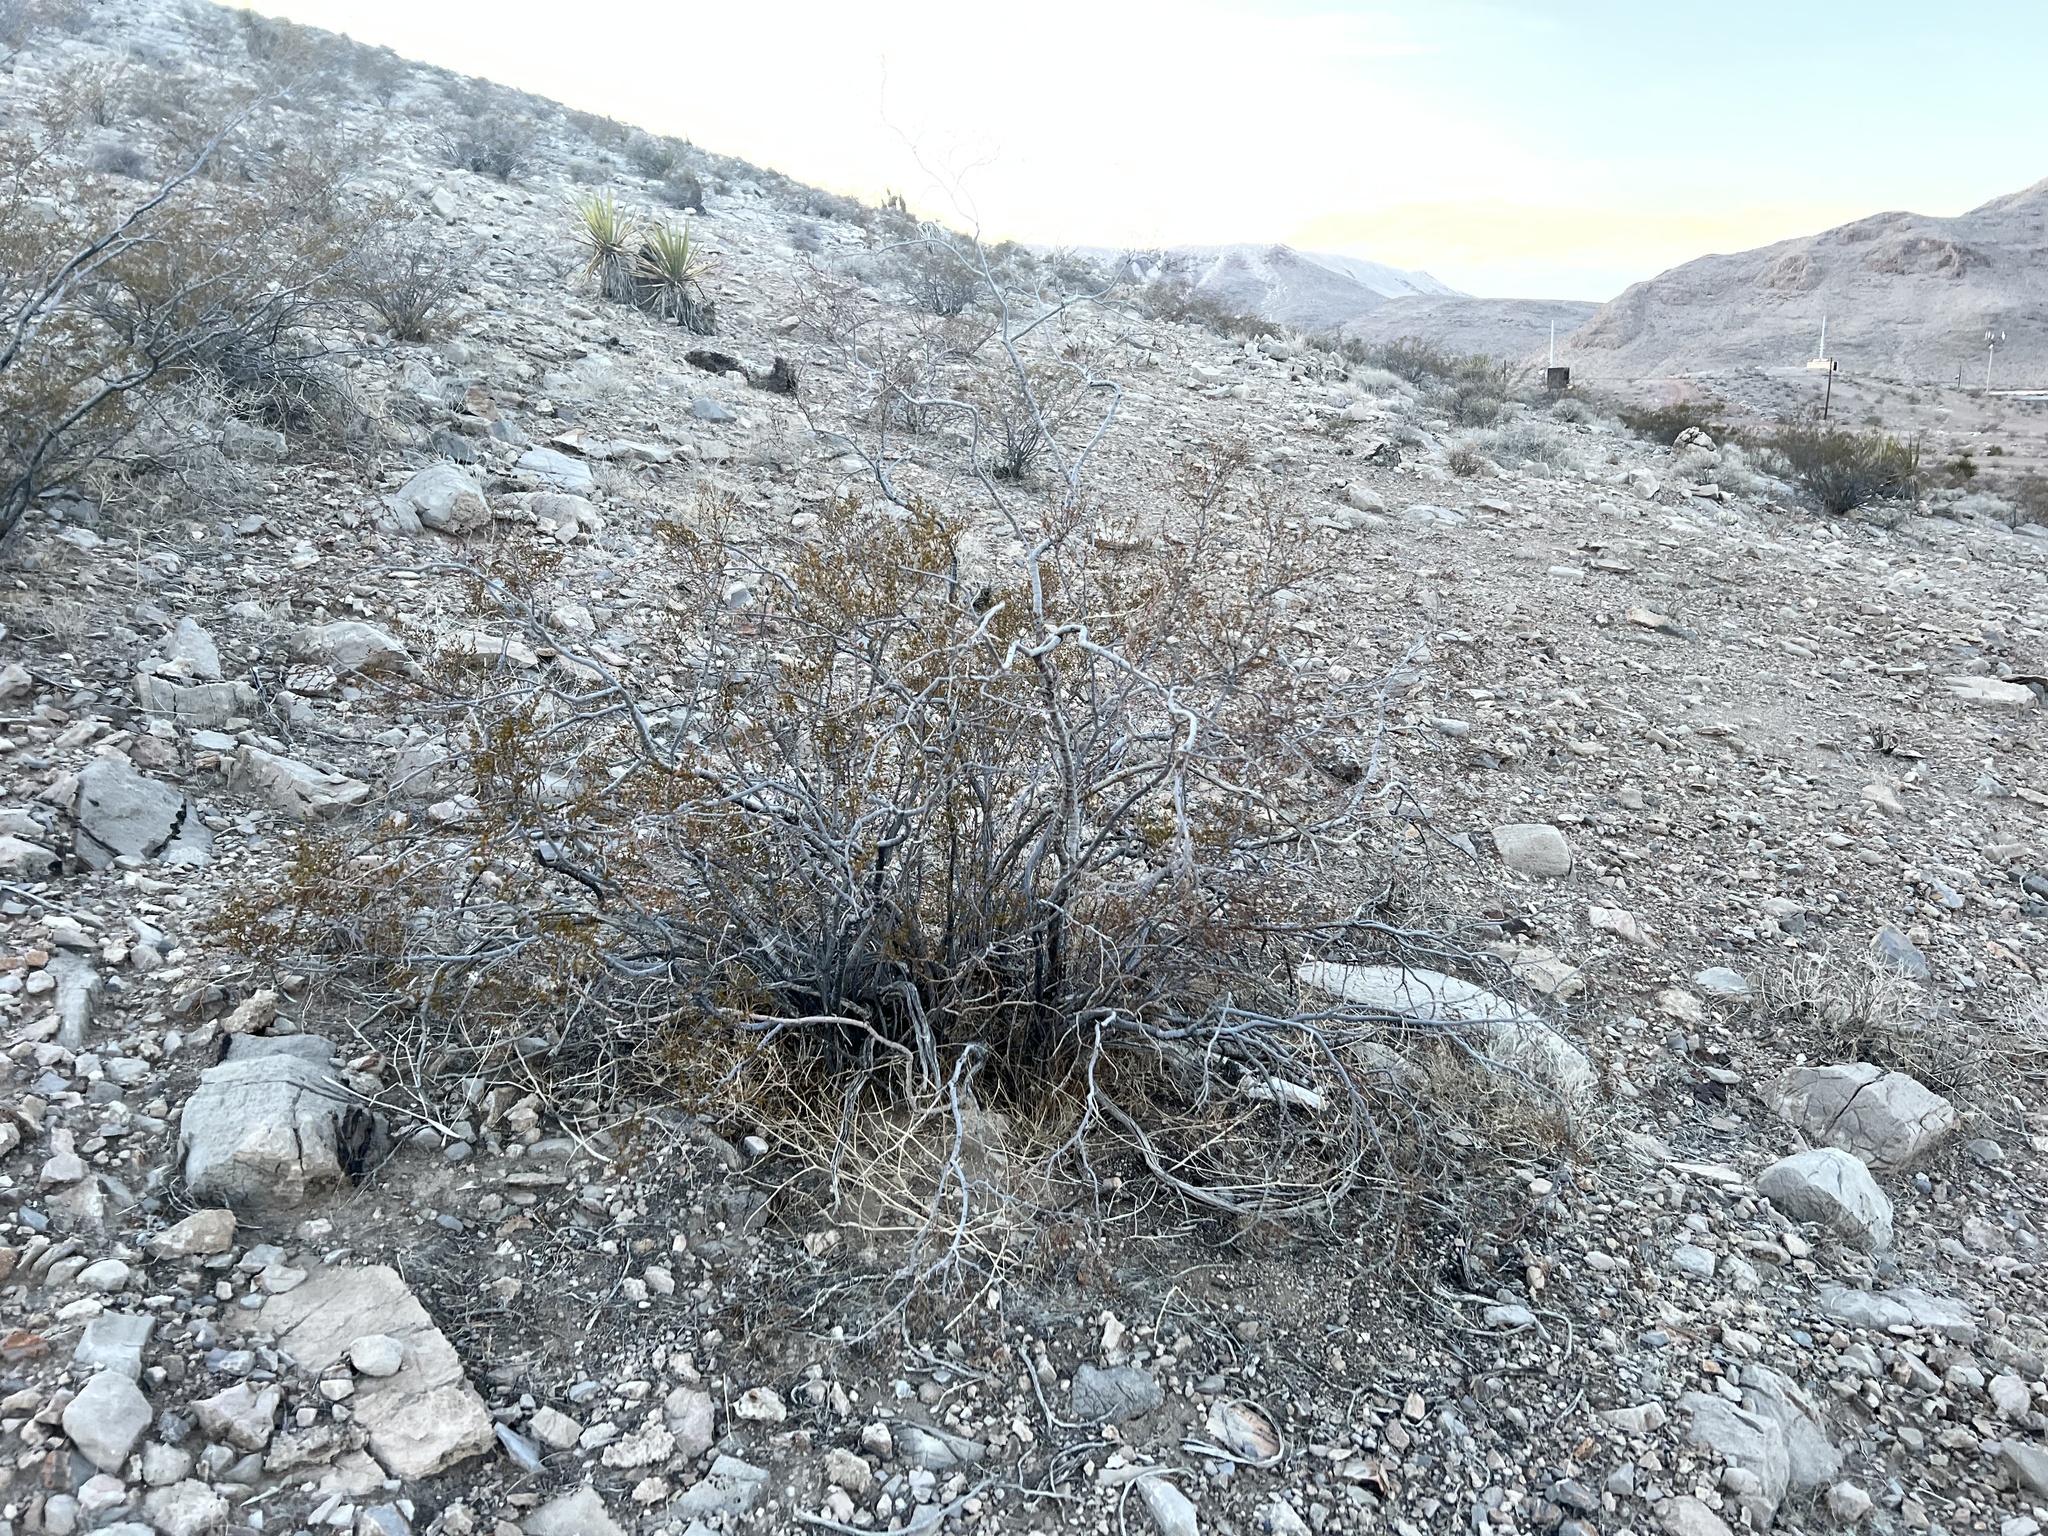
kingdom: Plantae
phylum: Tracheophyta
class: Magnoliopsida
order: Zygophyllales
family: Zygophyllaceae
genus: Larrea
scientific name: Larrea tridentata
